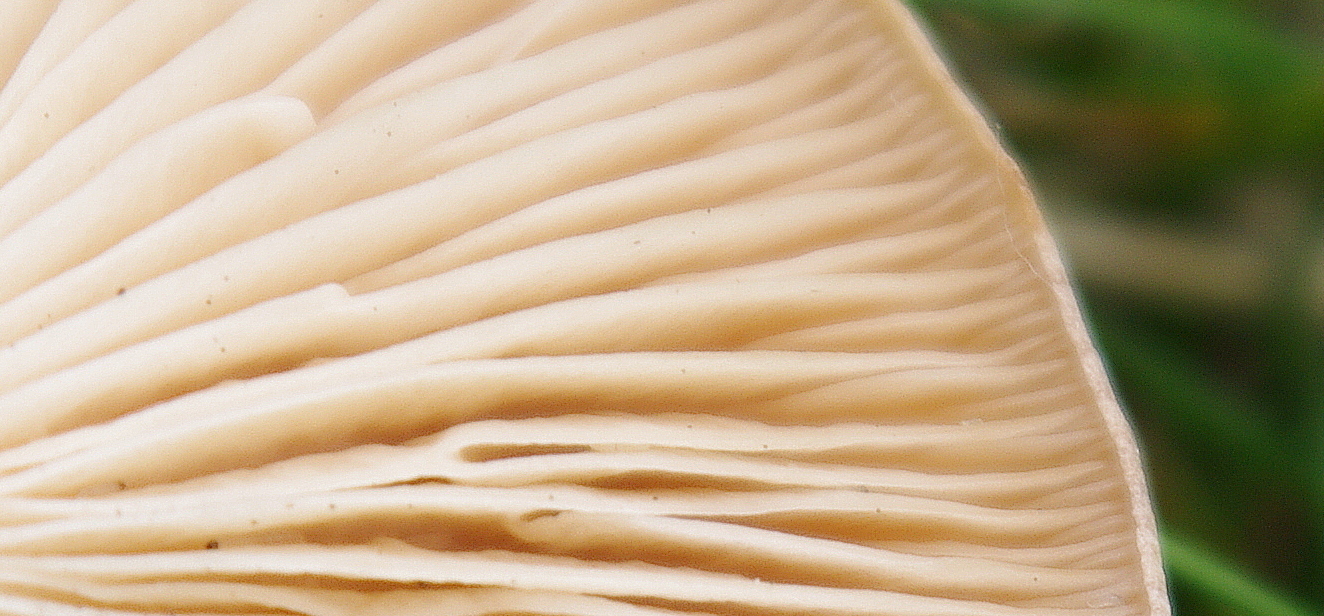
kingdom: Fungi
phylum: Basidiomycota
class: Agaricomycetes
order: Agaricales
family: Tricholomataceae
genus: Collybia
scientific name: Collybia
